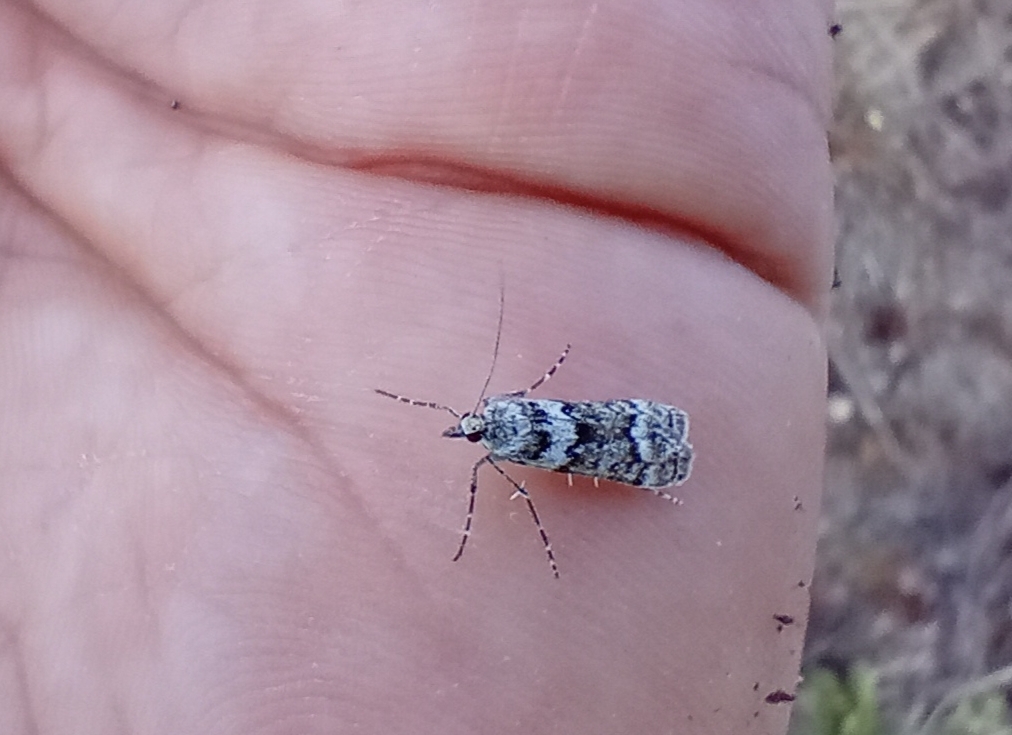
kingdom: Animalia
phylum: Arthropoda
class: Insecta
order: Lepidoptera
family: Crambidae
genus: Eudonia
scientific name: Eudonia gyrotoma
